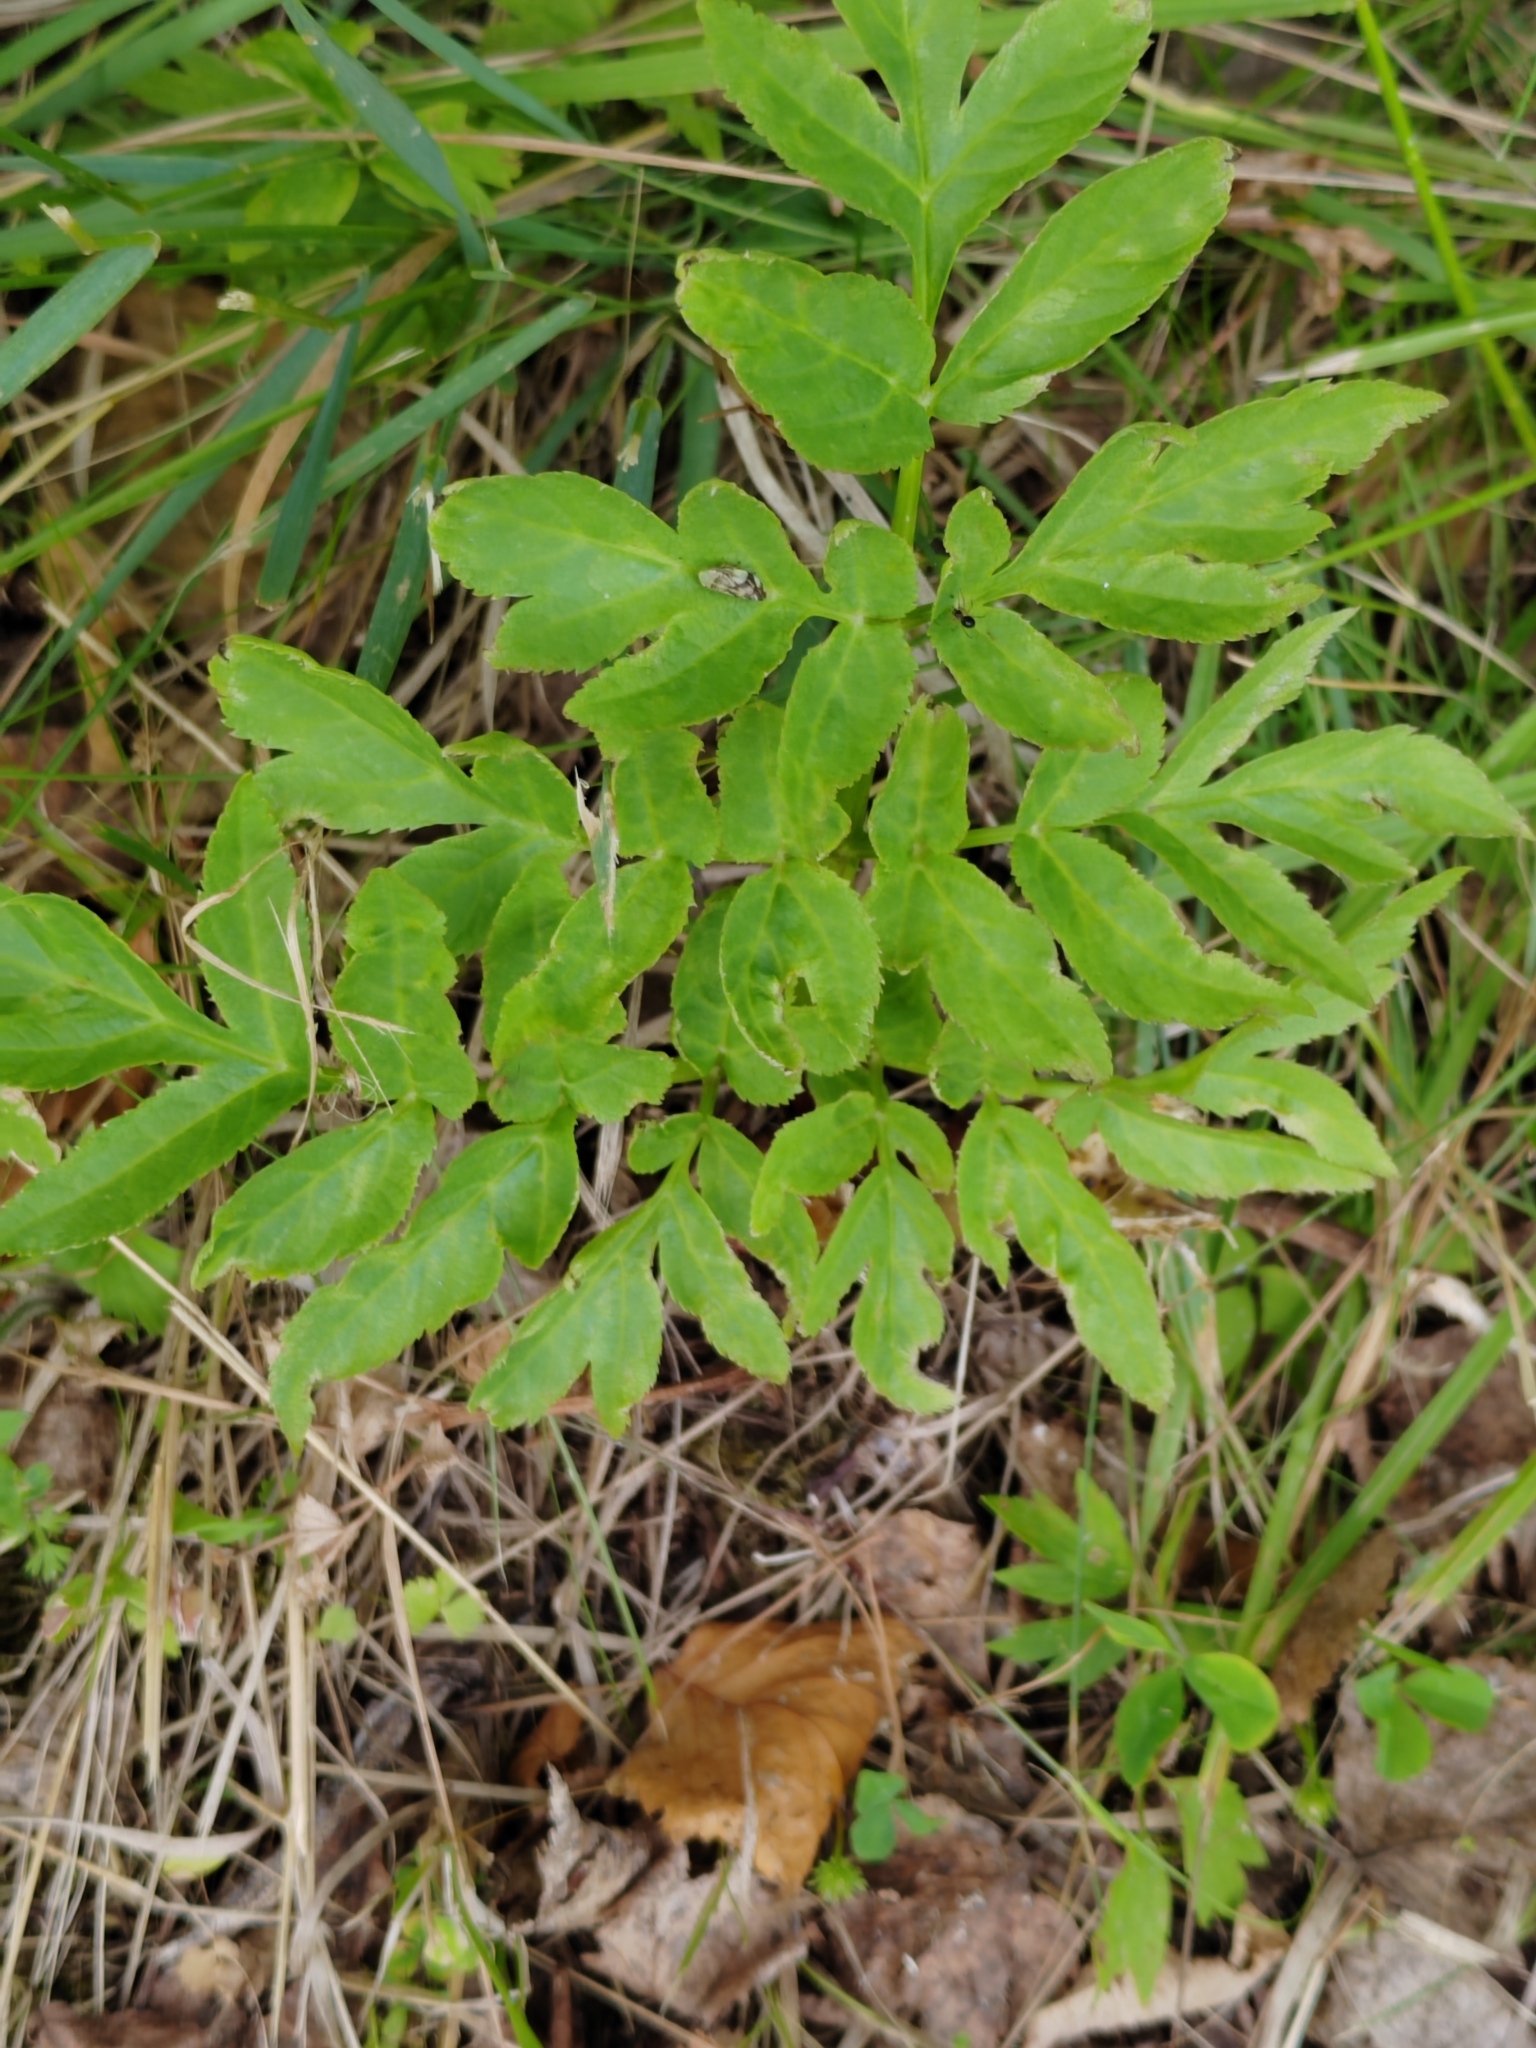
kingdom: Plantae
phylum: Tracheophyta
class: Magnoliopsida
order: Apiales
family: Apiaceae
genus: Angelica
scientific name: Angelica sylvestris
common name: Wild angelica
